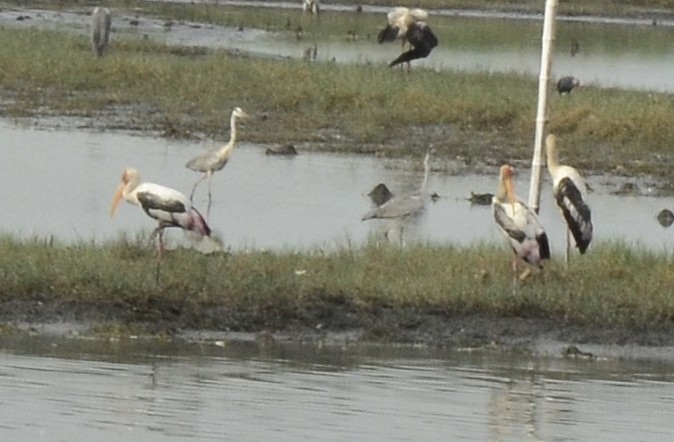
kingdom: Animalia
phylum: Chordata
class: Aves
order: Ciconiiformes
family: Ciconiidae
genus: Mycteria
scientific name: Mycteria leucocephala
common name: Painted stork
